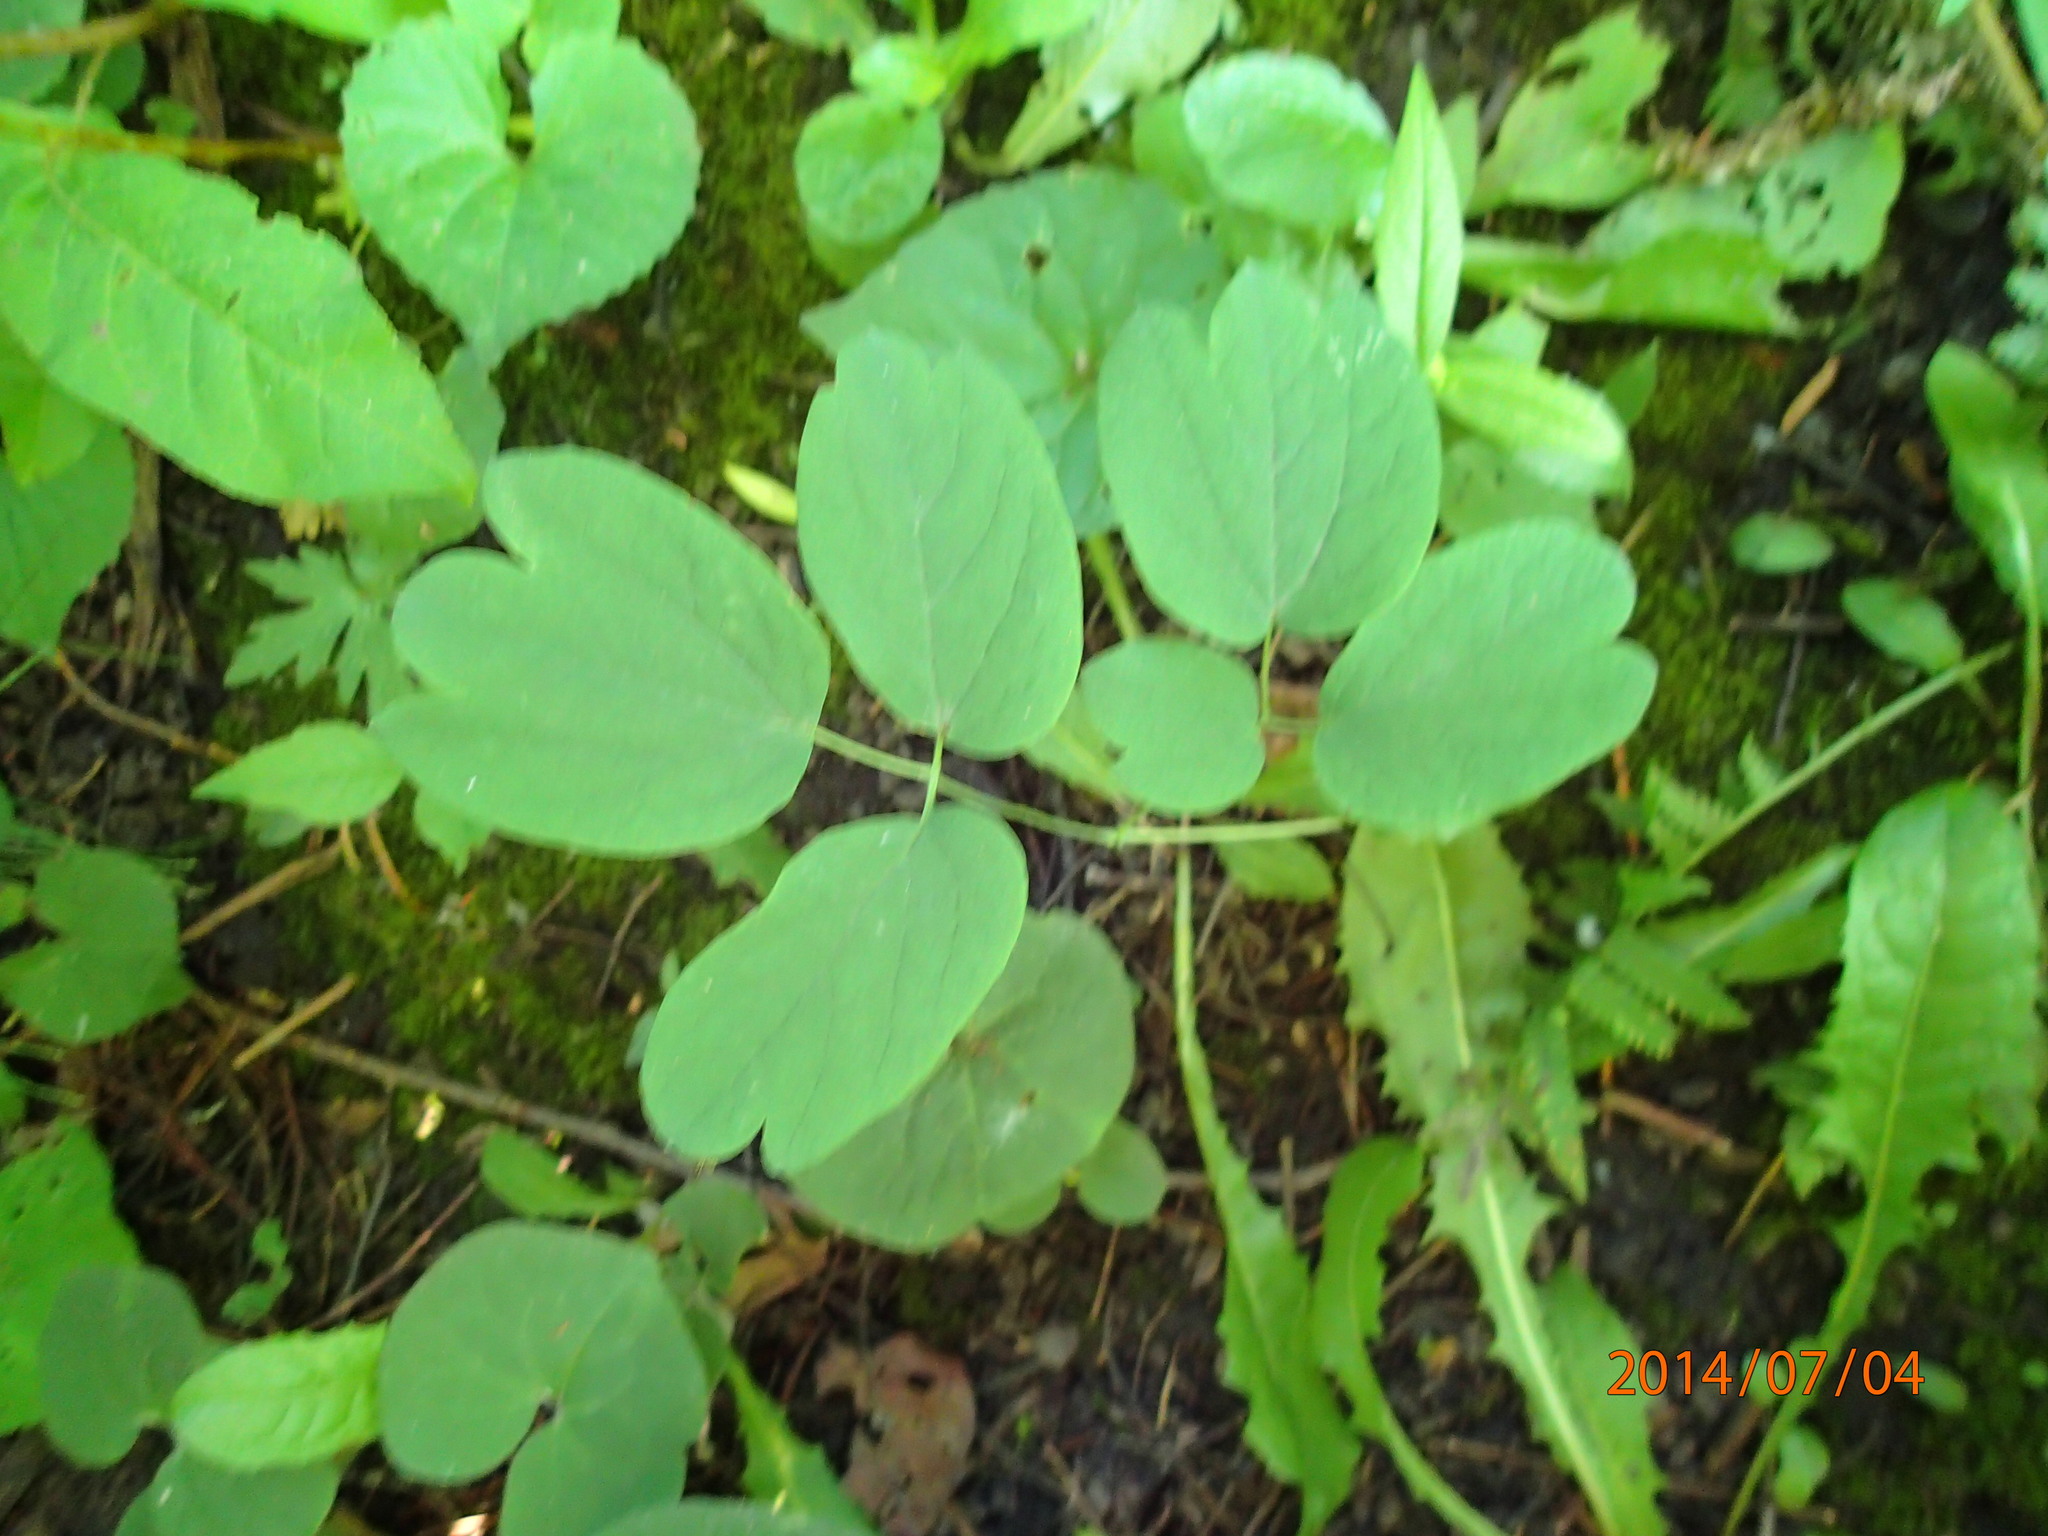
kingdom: Plantae
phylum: Tracheophyta
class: Magnoliopsida
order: Ranunculales
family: Berberidaceae
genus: Caulophyllum
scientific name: Caulophyllum thalictroides
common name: Blue cohosh
